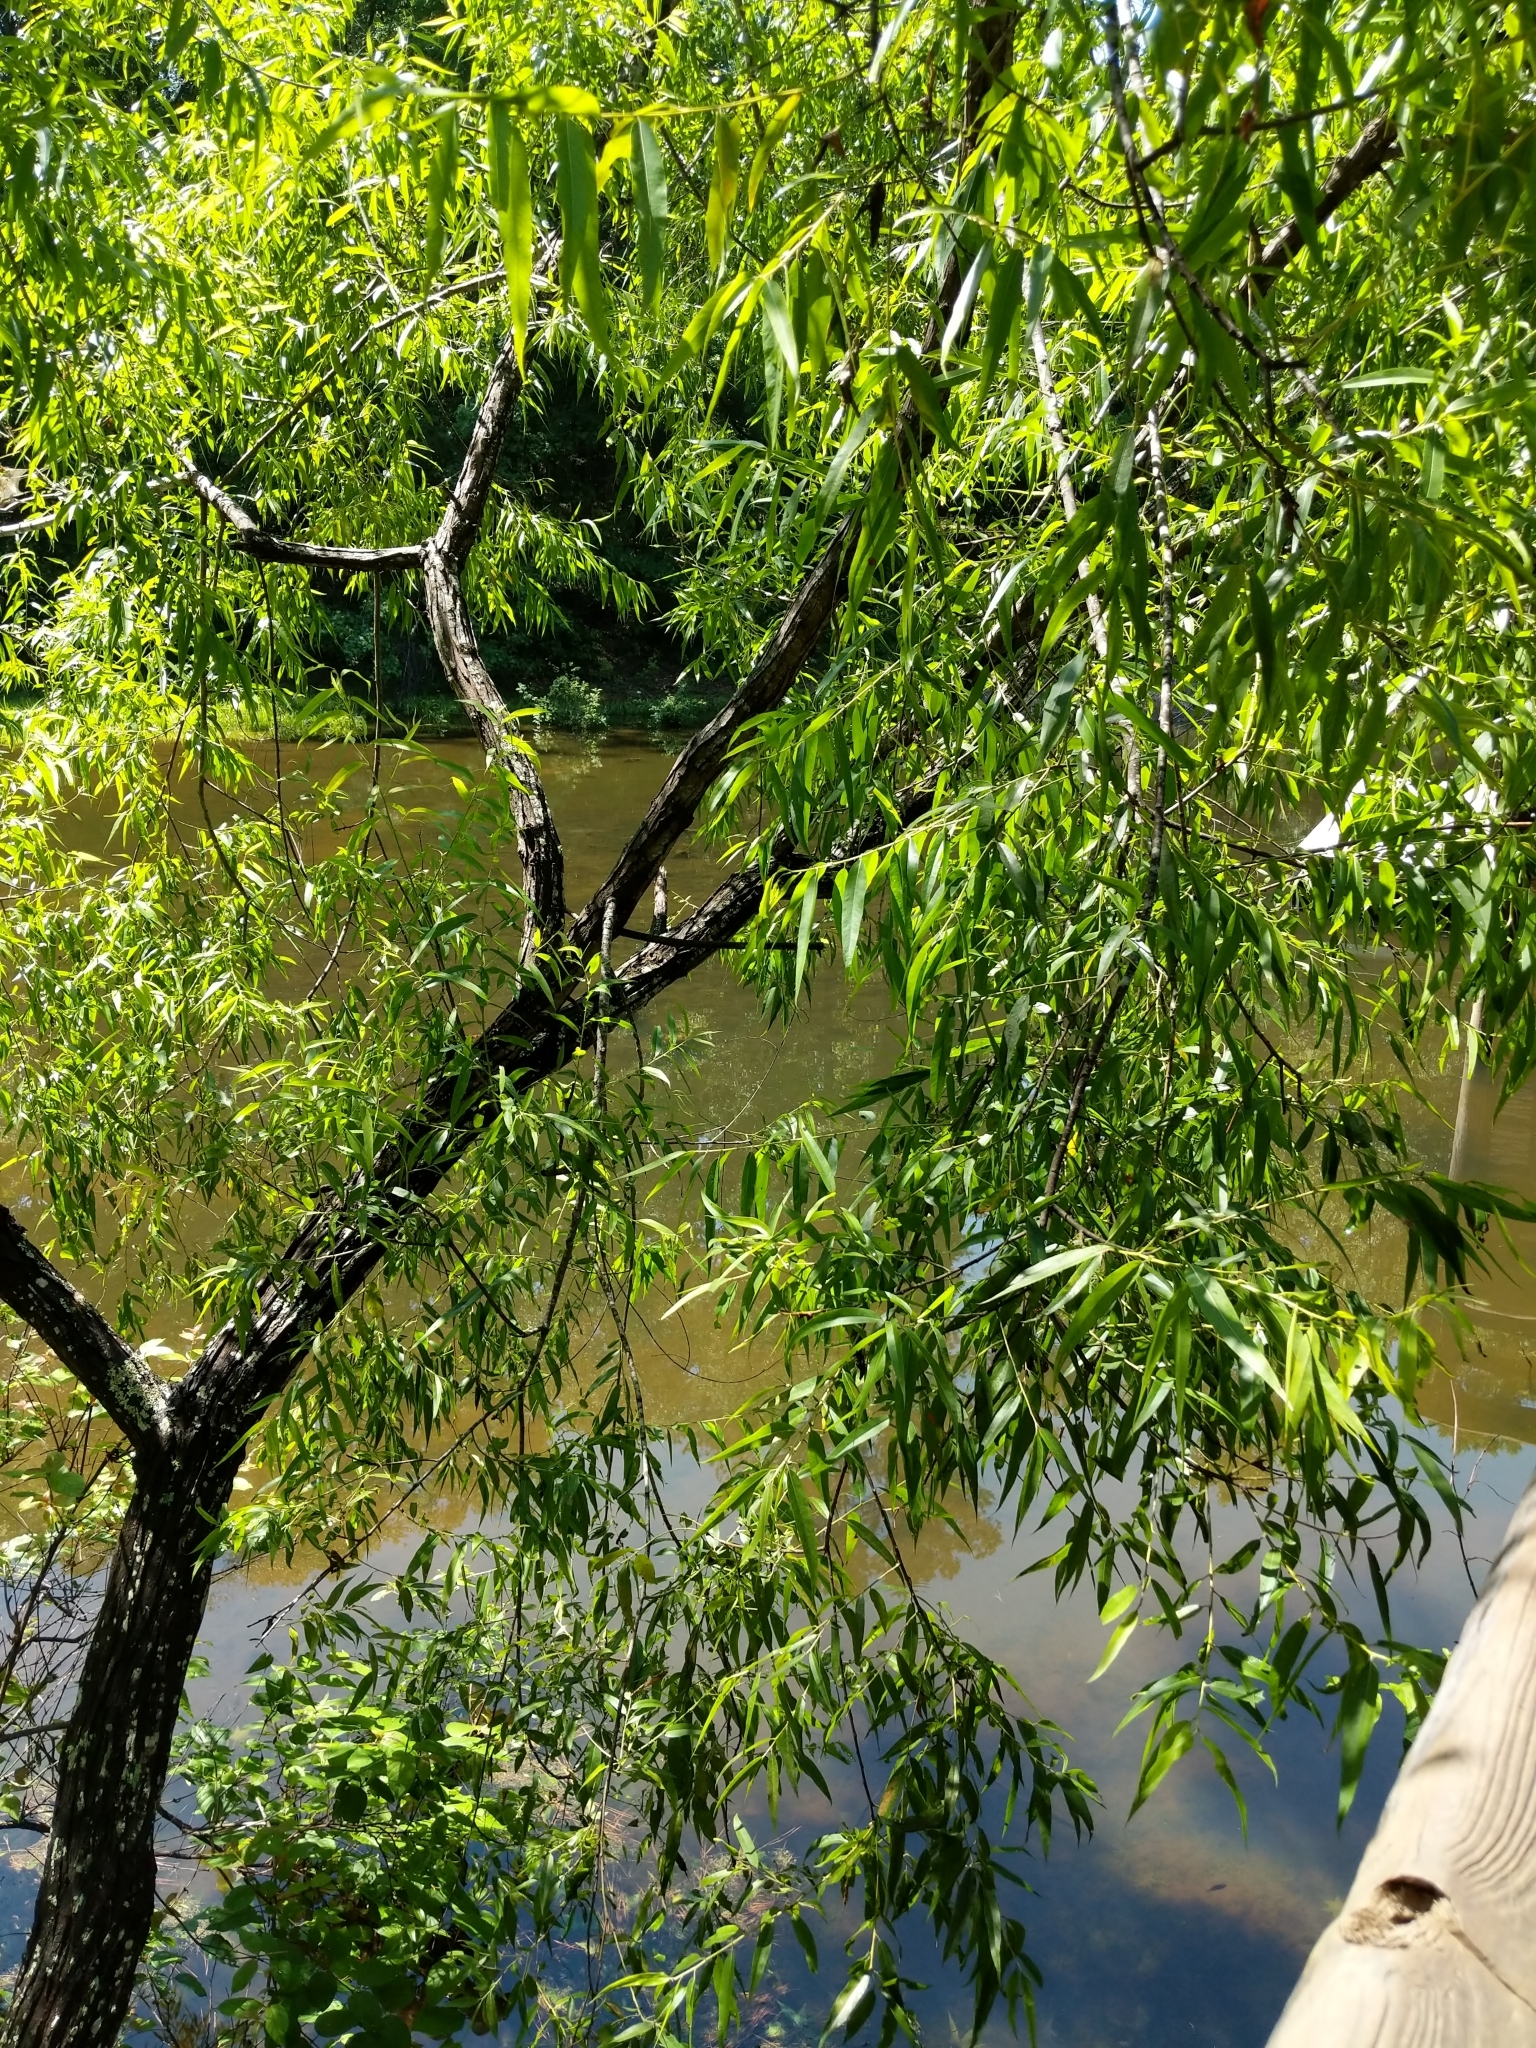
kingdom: Plantae
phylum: Tracheophyta
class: Magnoliopsida
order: Malpighiales
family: Salicaceae
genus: Salix
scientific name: Salix nigra
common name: Black willow
